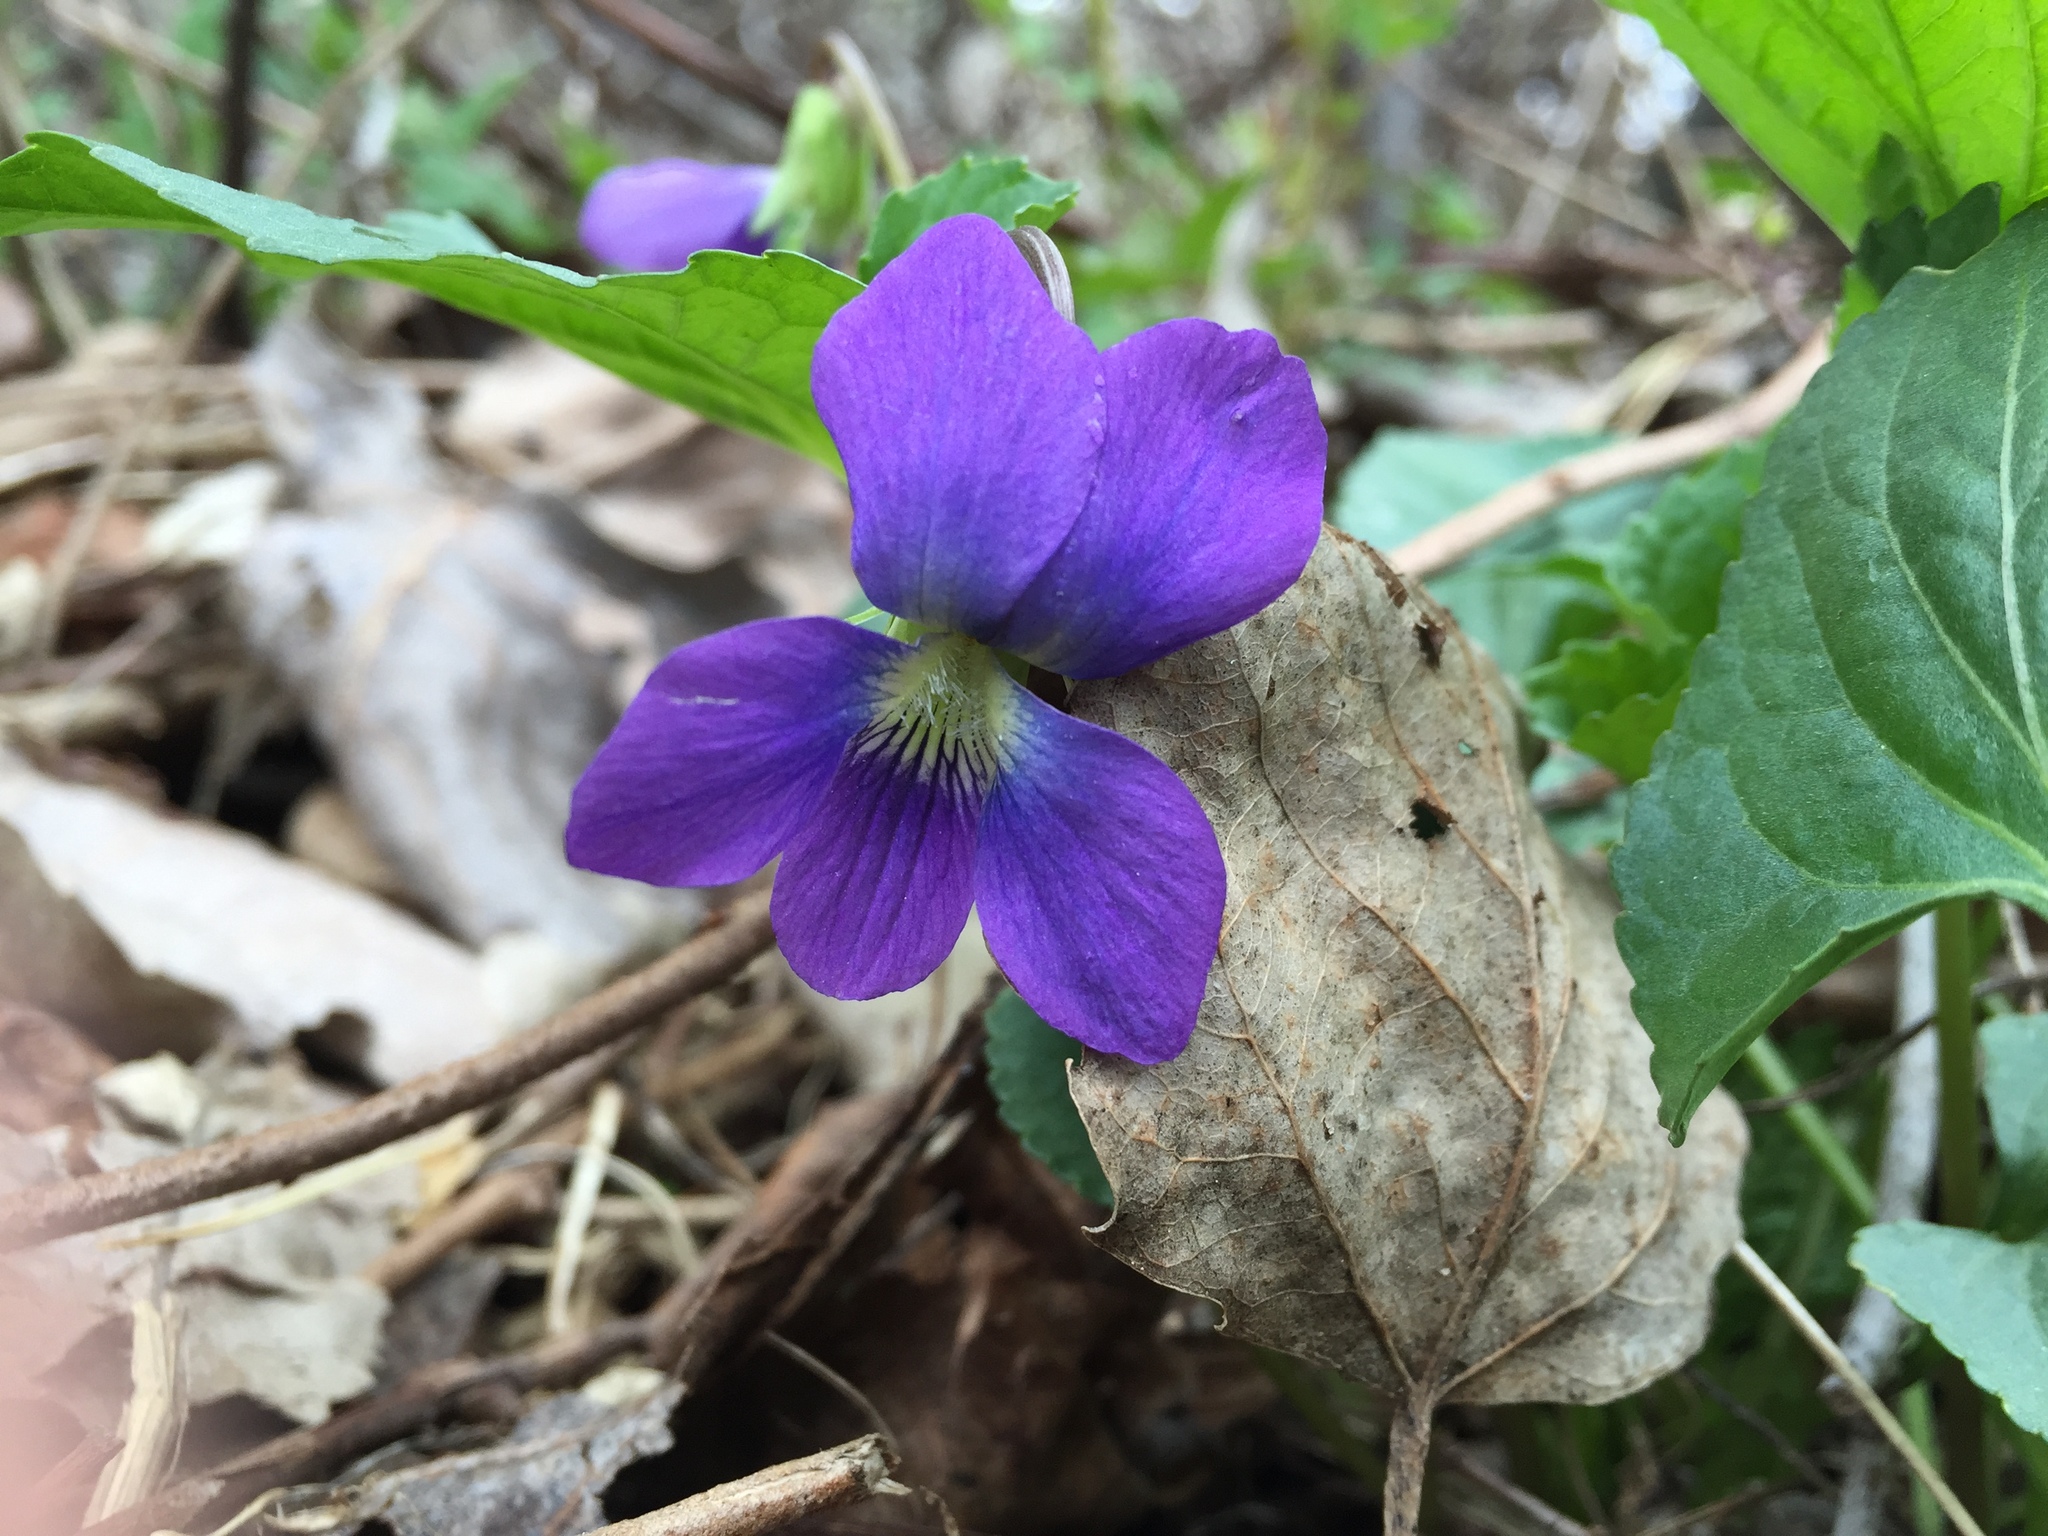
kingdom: Plantae
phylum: Tracheophyta
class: Magnoliopsida
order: Malpighiales
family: Violaceae
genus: Viola
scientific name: Viola sororia
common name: Dooryard violet
